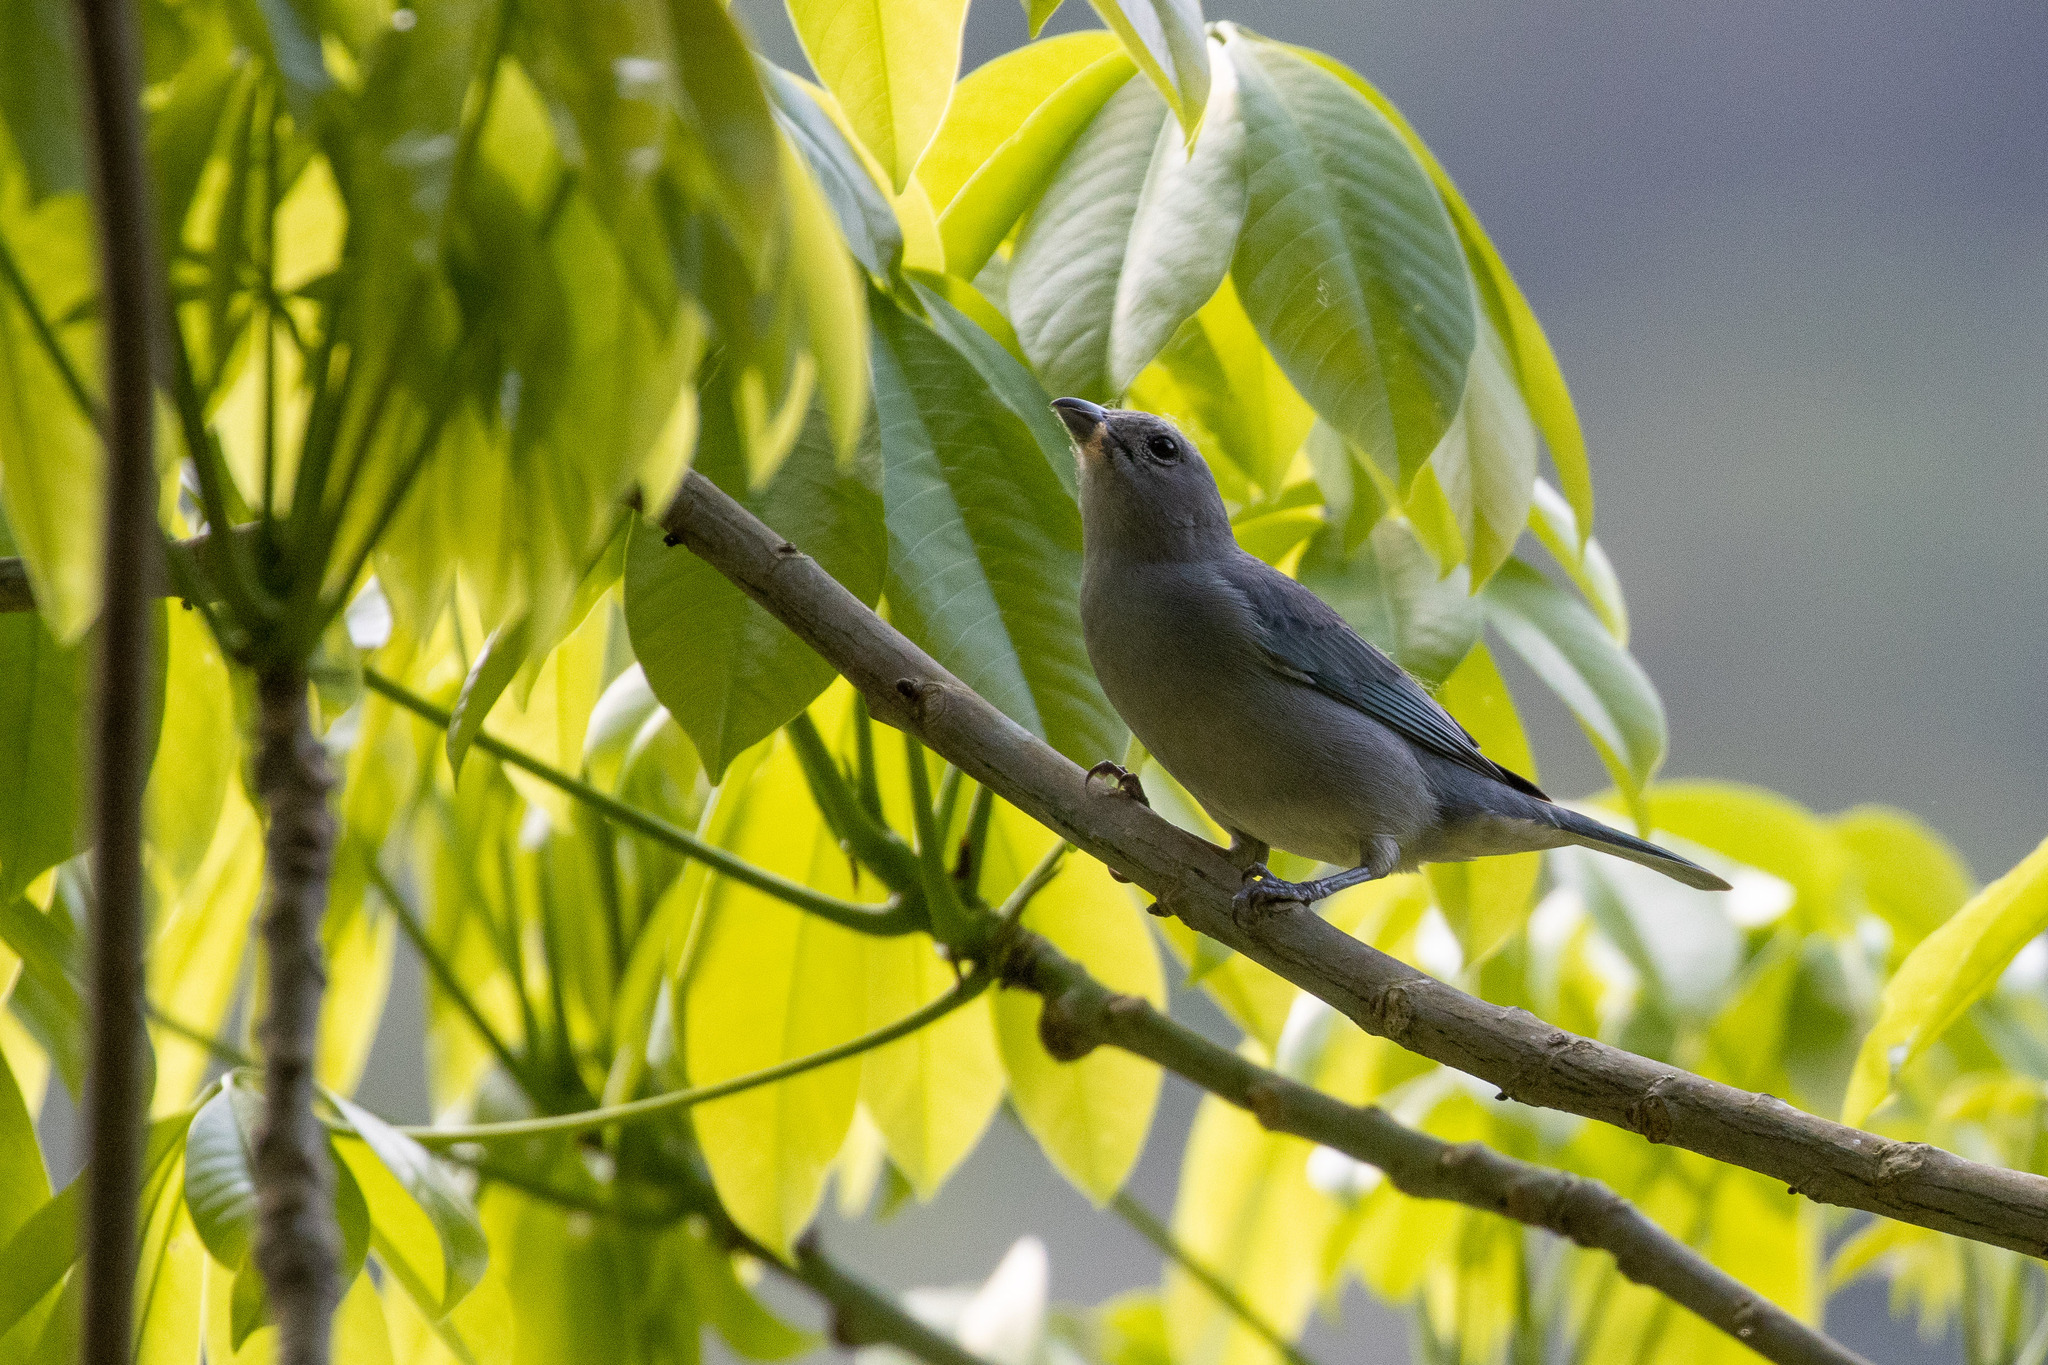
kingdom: Animalia
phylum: Chordata
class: Aves
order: Passeriformes
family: Thraupidae
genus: Thraupis
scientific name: Thraupis sayaca
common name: Sayaca tanager
